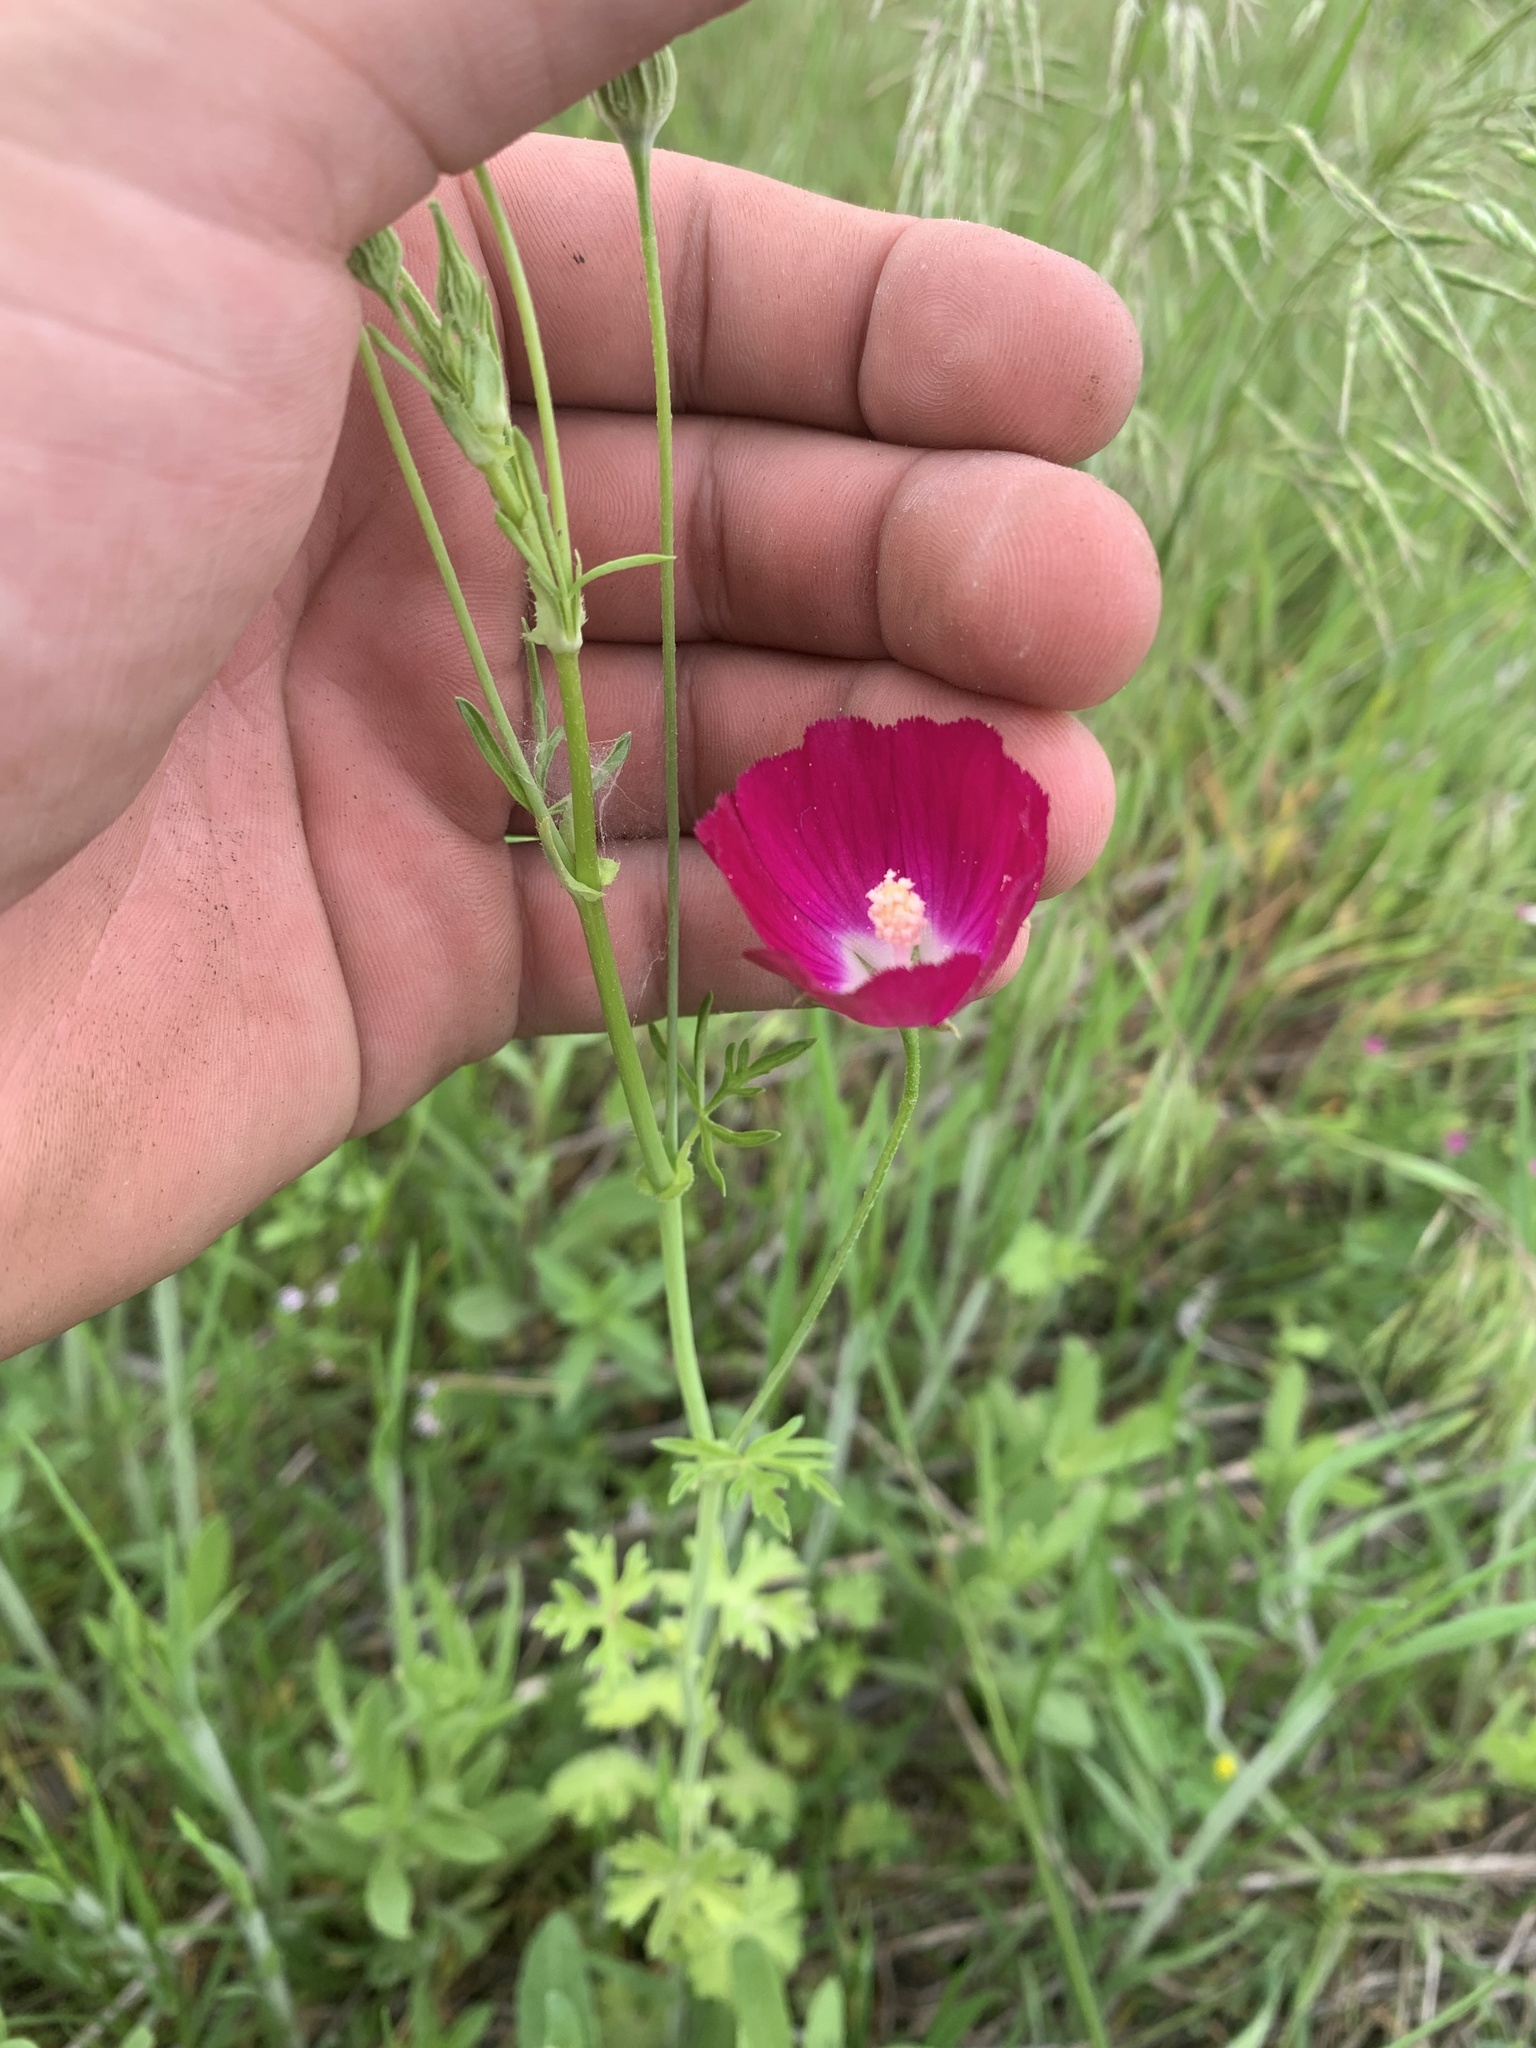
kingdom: Plantae
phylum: Tracheophyta
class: Magnoliopsida
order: Malvales
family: Malvaceae
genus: Callirhoe
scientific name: Callirhoe leiocarpa
